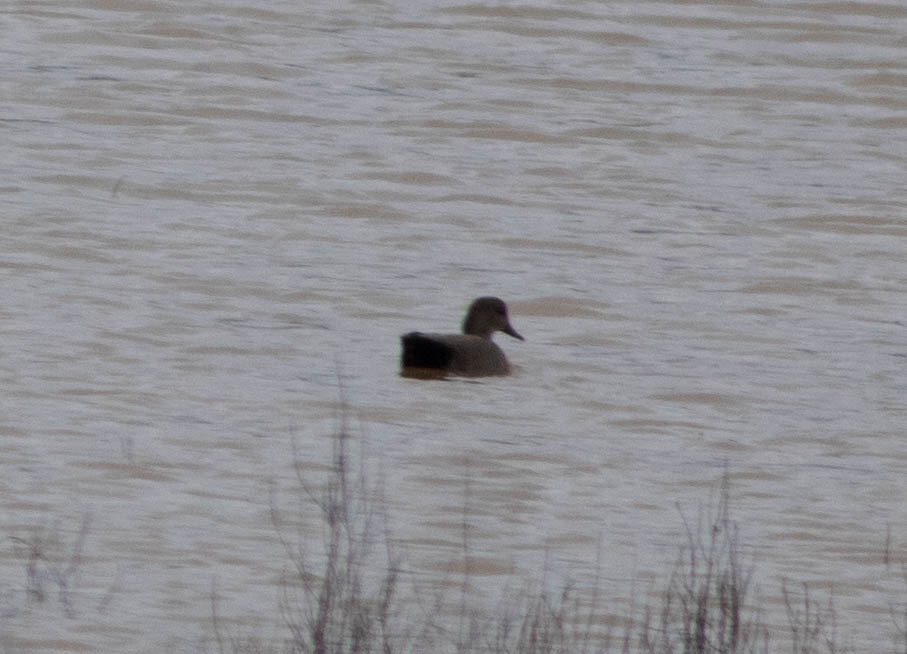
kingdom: Animalia
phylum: Chordata
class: Aves
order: Anseriformes
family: Anatidae
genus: Mareca
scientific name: Mareca strepera
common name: Gadwall
